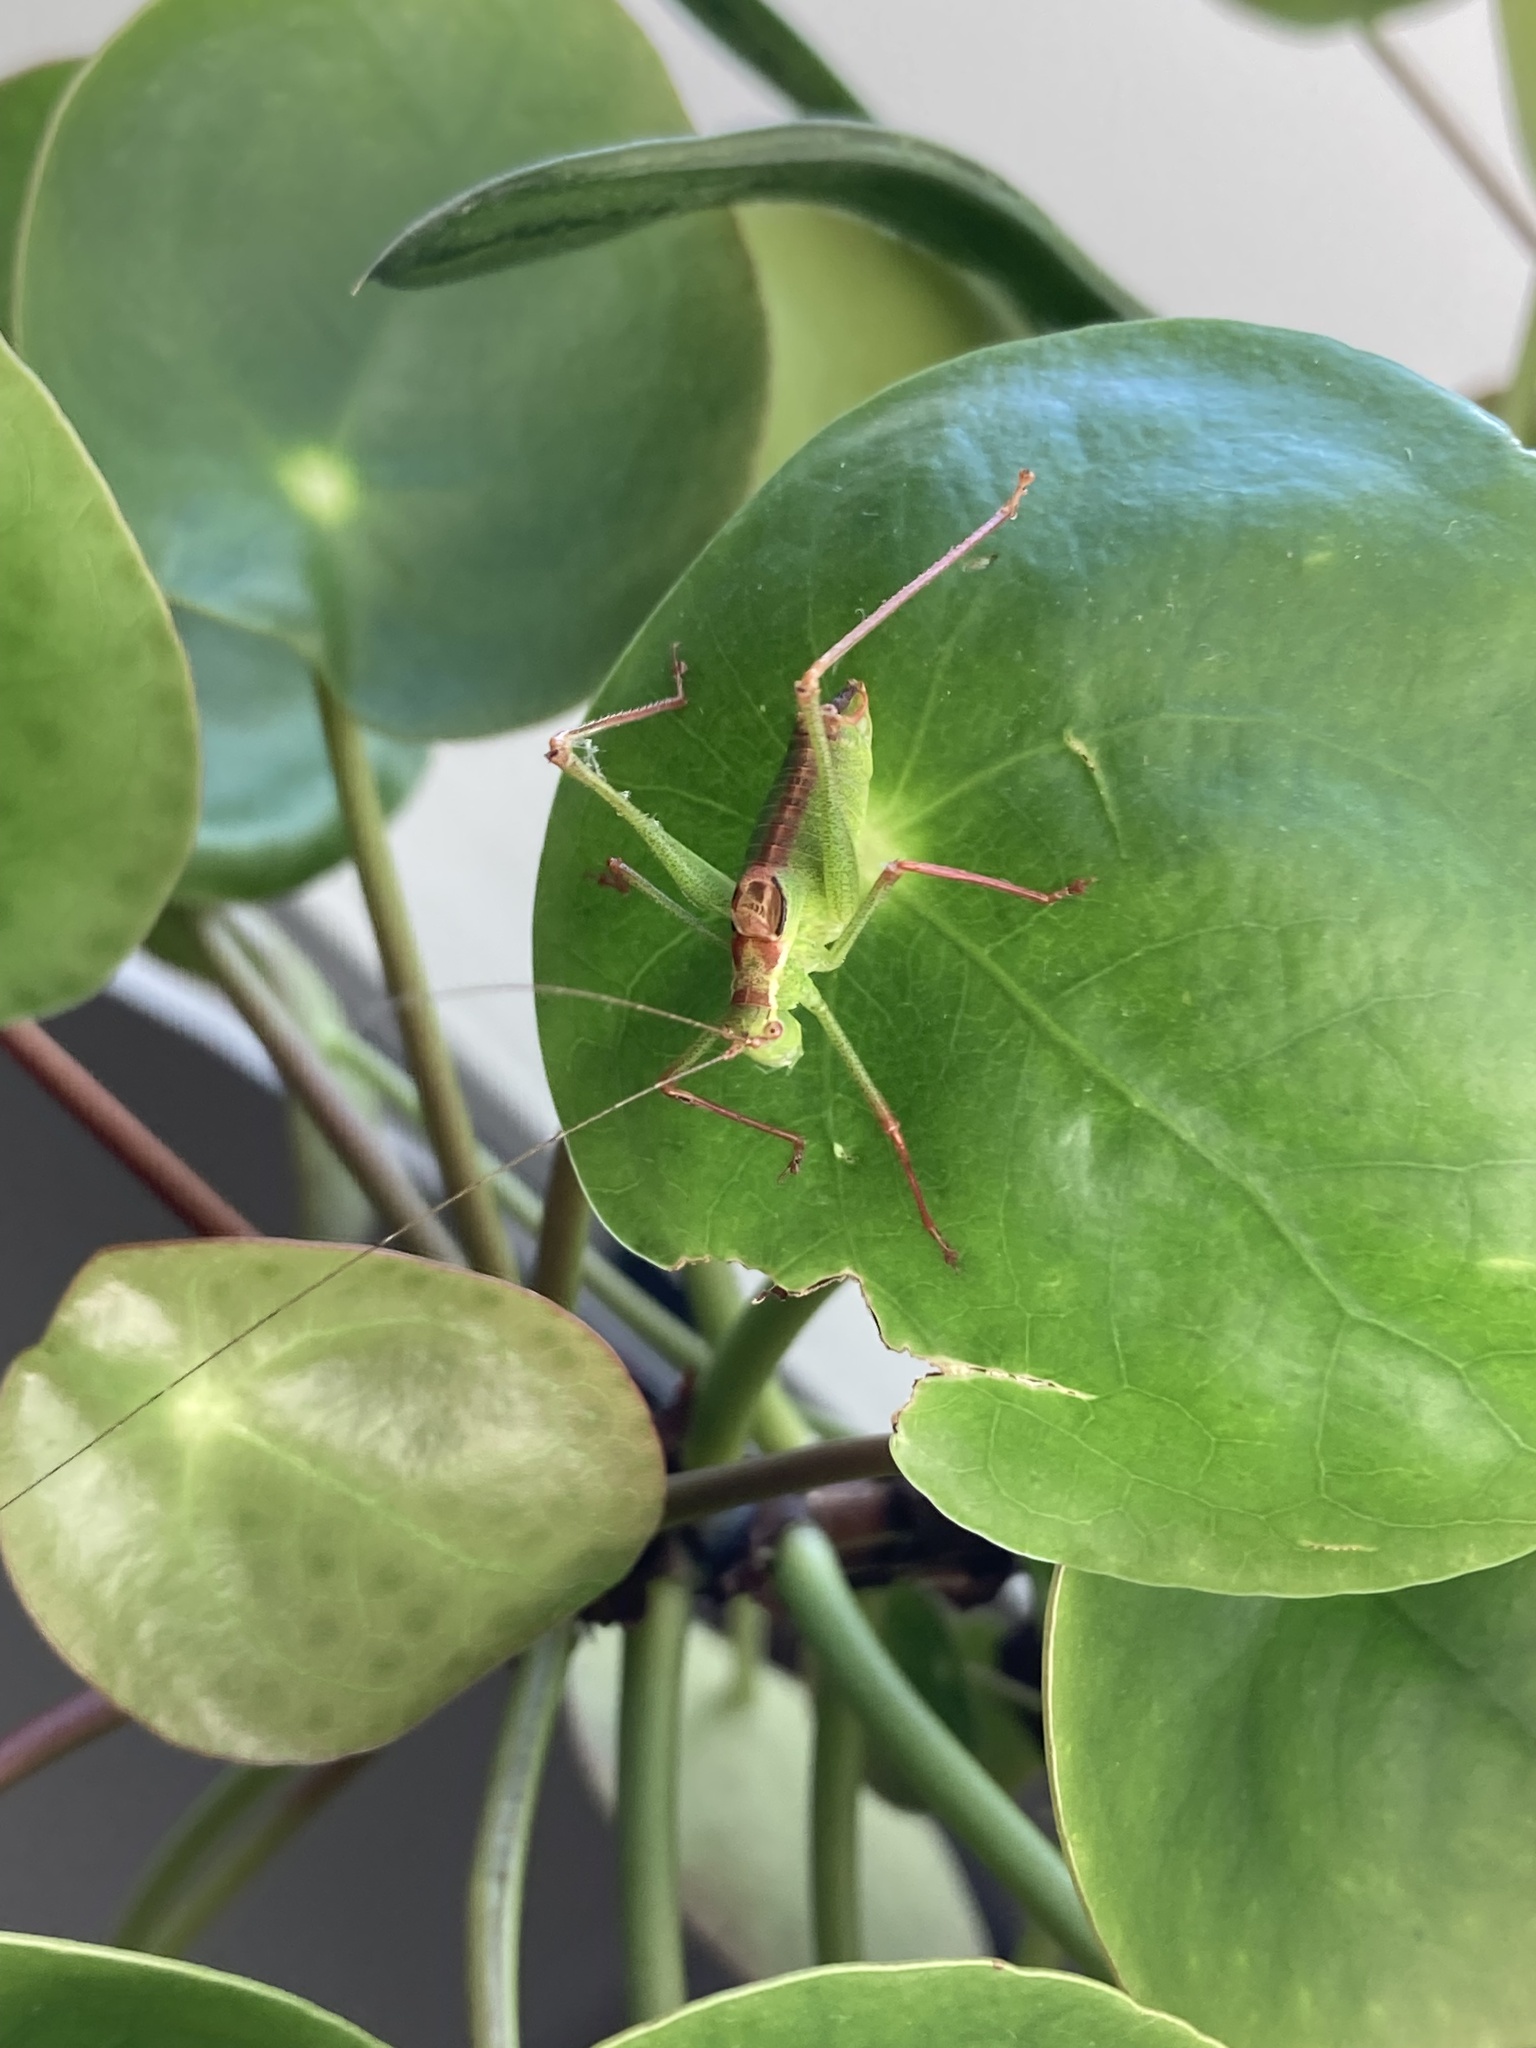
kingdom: Animalia
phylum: Arthropoda
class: Insecta
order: Orthoptera
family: Tettigoniidae
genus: Leptophyes
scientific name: Leptophyes punctatissima
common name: Speckled bush-cricket
